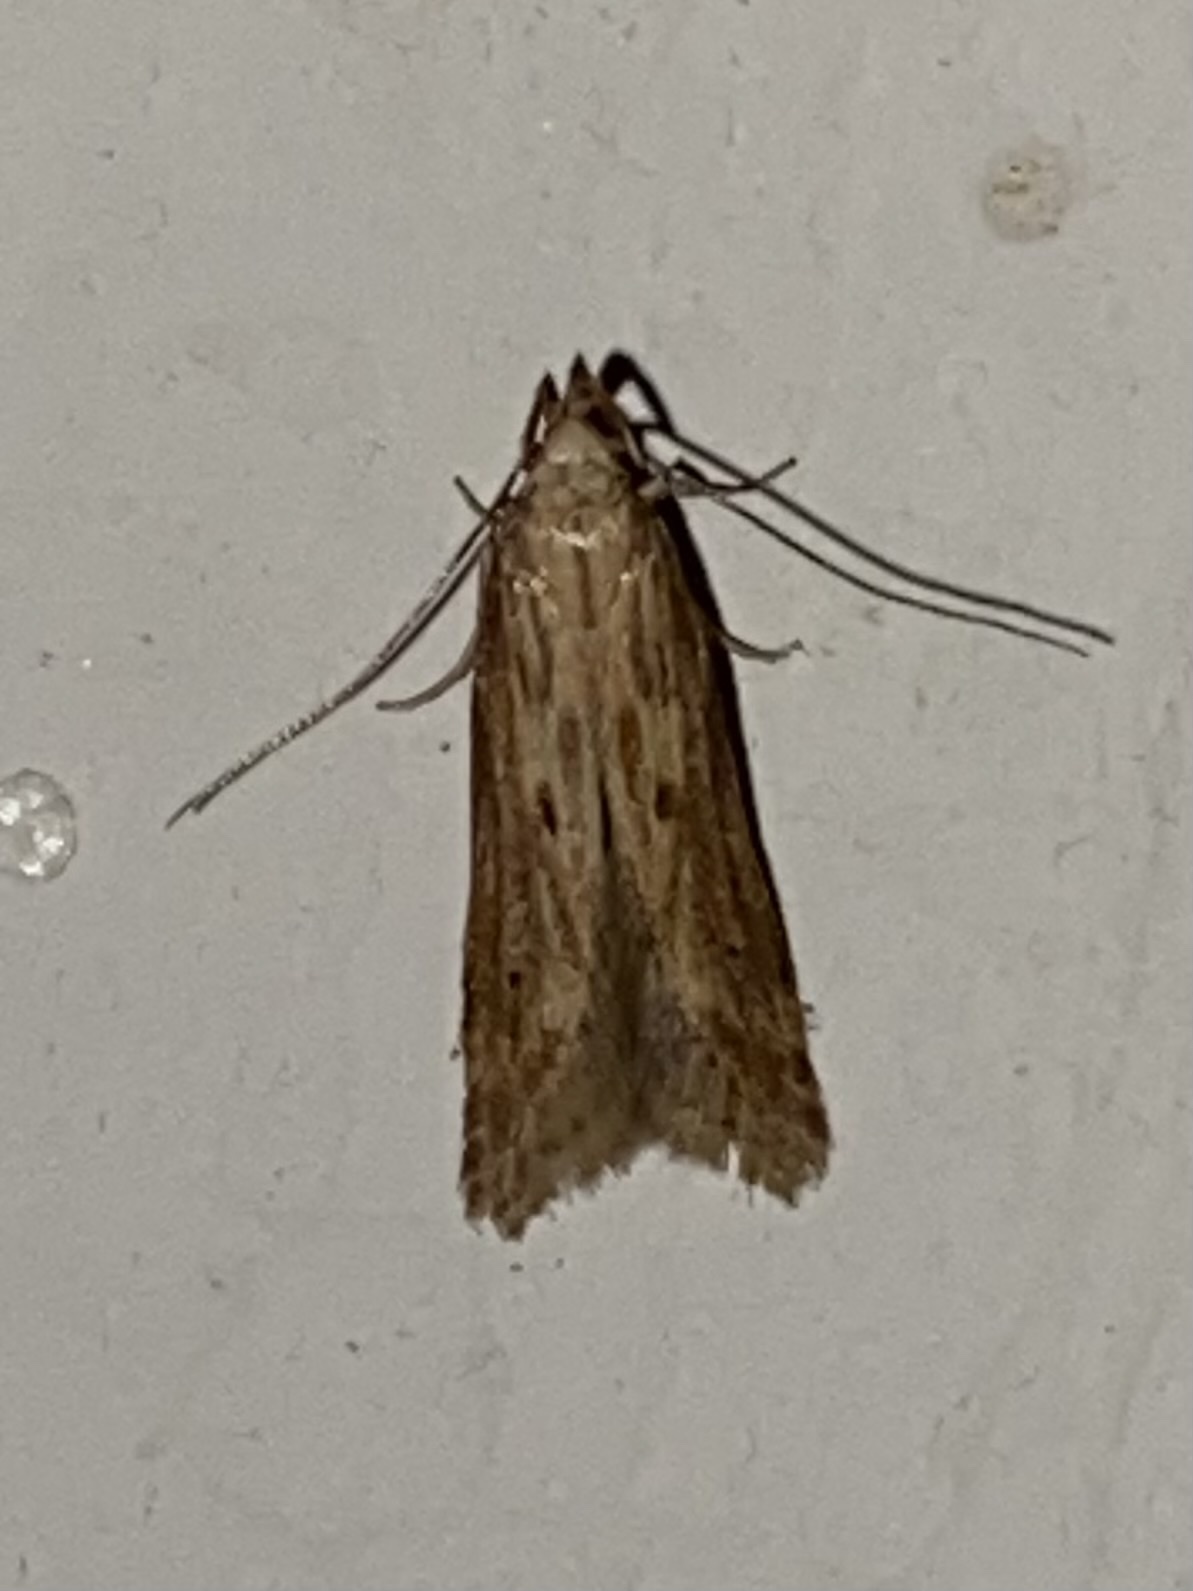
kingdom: Animalia
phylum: Arthropoda
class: Insecta
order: Lepidoptera
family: Gelechiidae
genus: Metzneria
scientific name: Metzneria lappella
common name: Burdock neb
